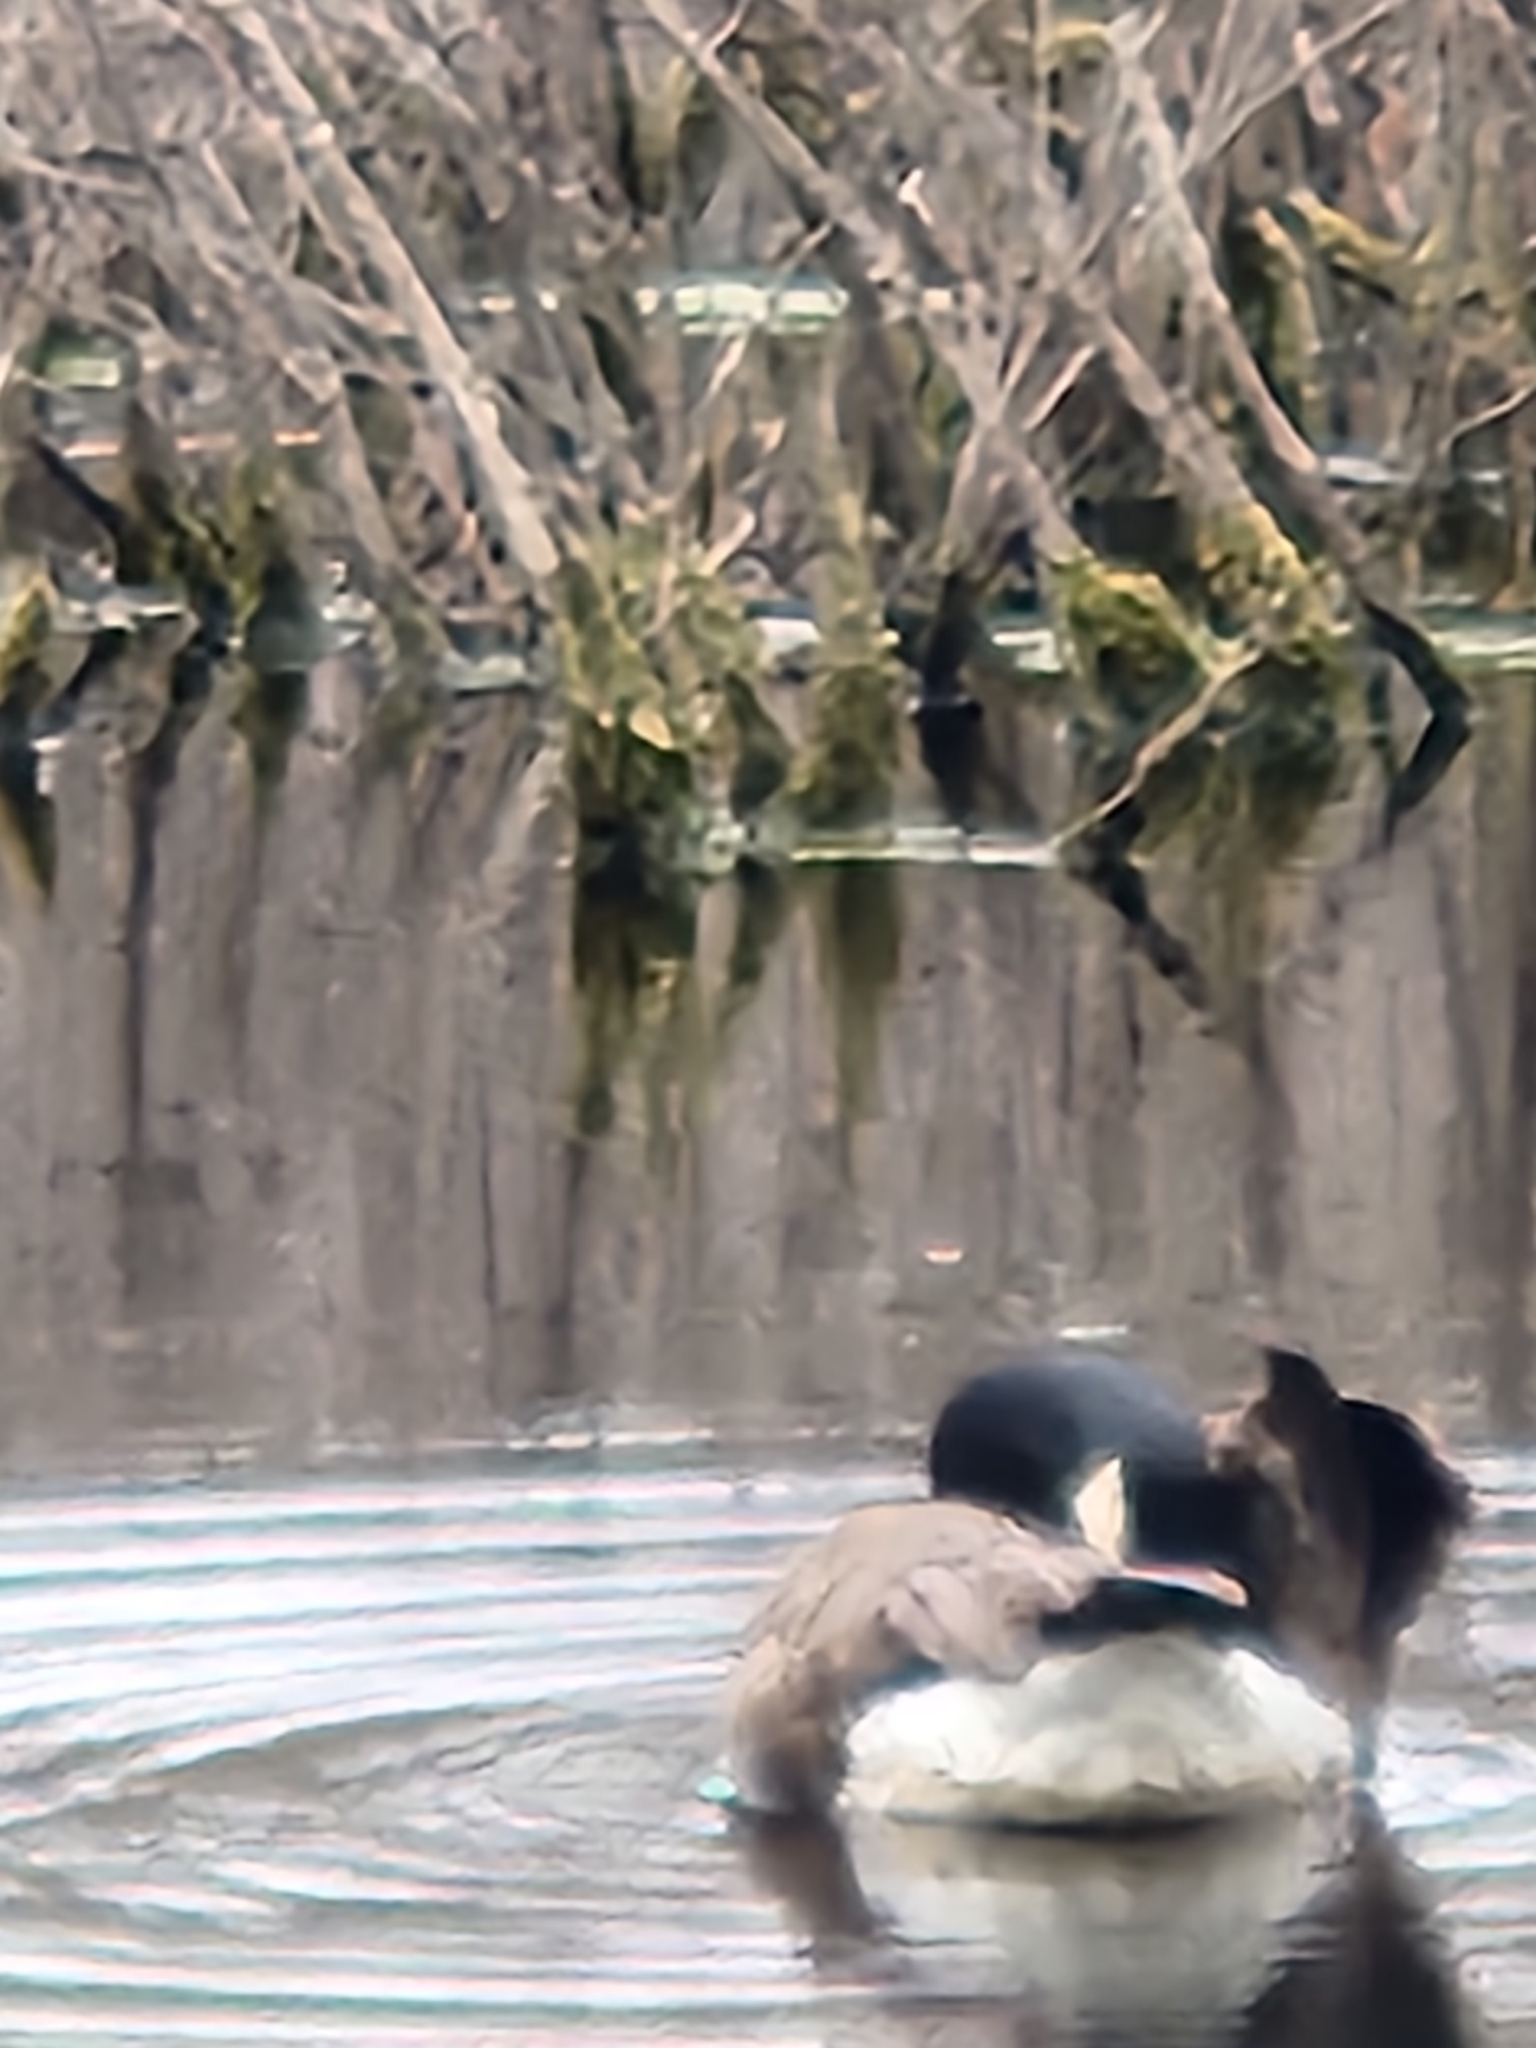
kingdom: Animalia
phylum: Chordata
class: Aves
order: Anseriformes
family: Anatidae
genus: Branta
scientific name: Branta canadensis
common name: Canada goose
